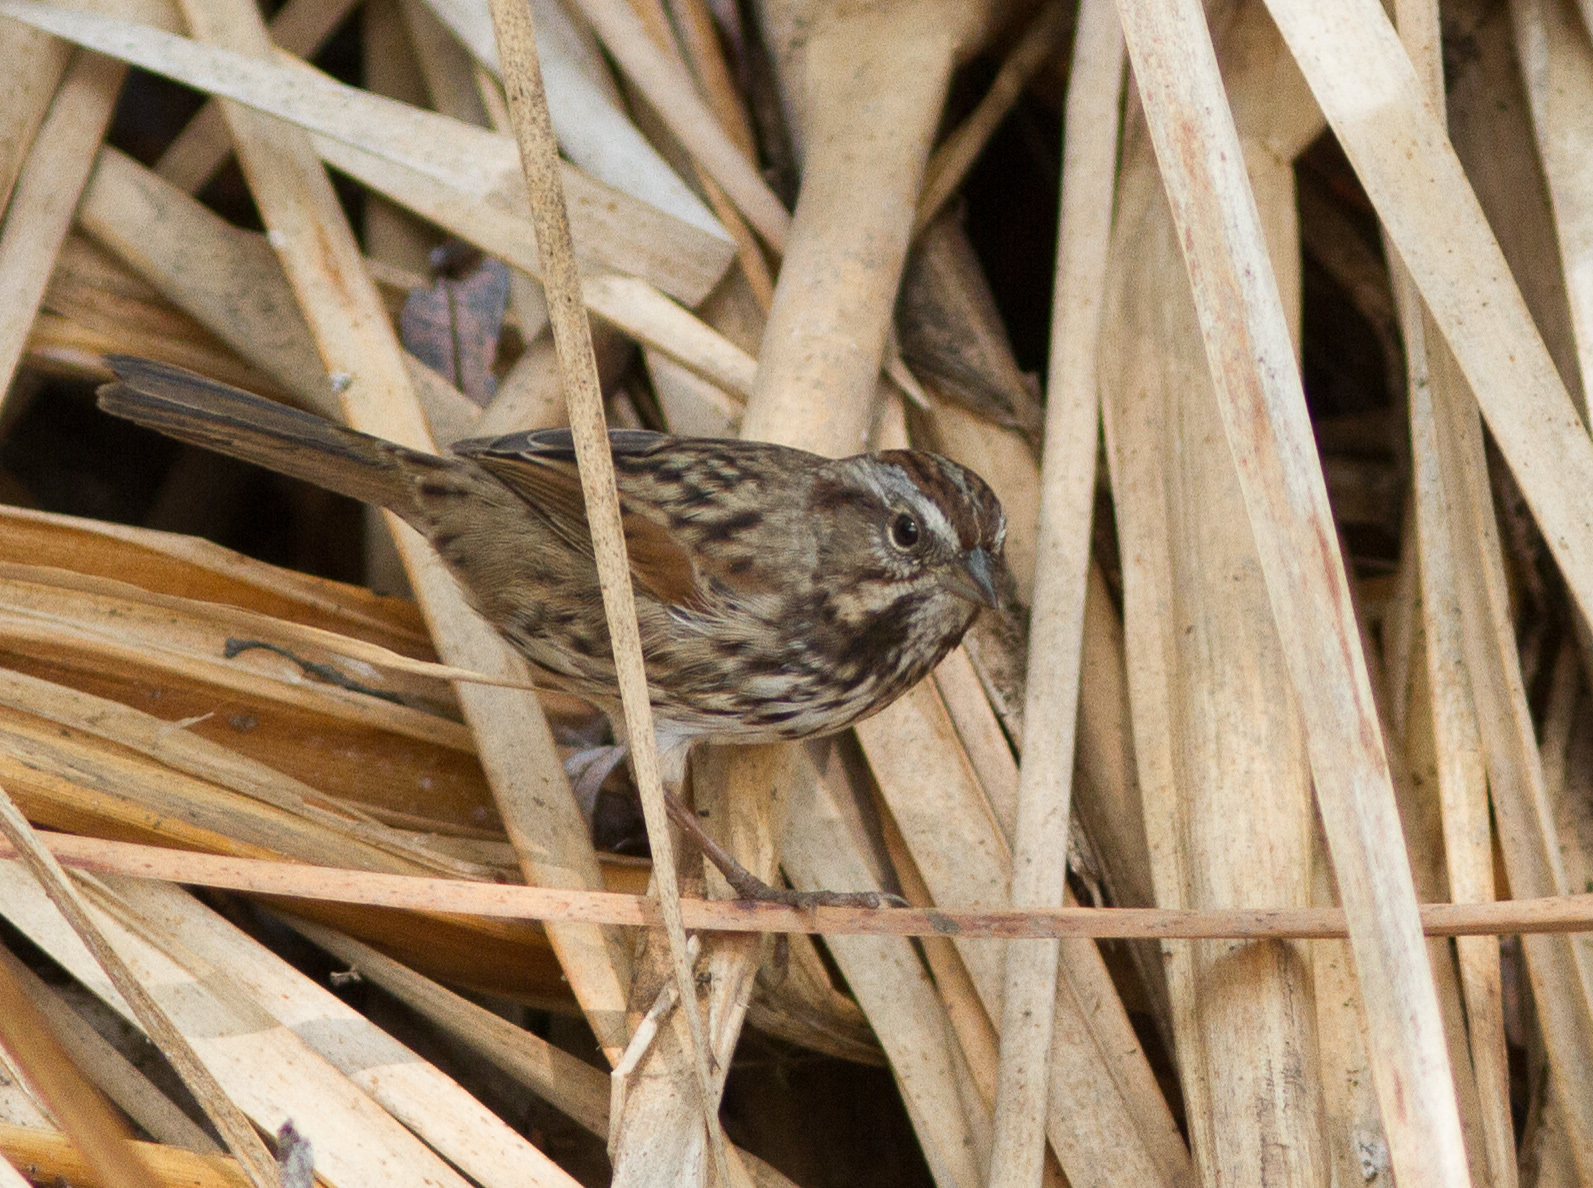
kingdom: Animalia
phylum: Chordata
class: Aves
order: Passeriformes
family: Passerellidae
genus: Melospiza
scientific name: Melospiza melodia
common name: Song sparrow
